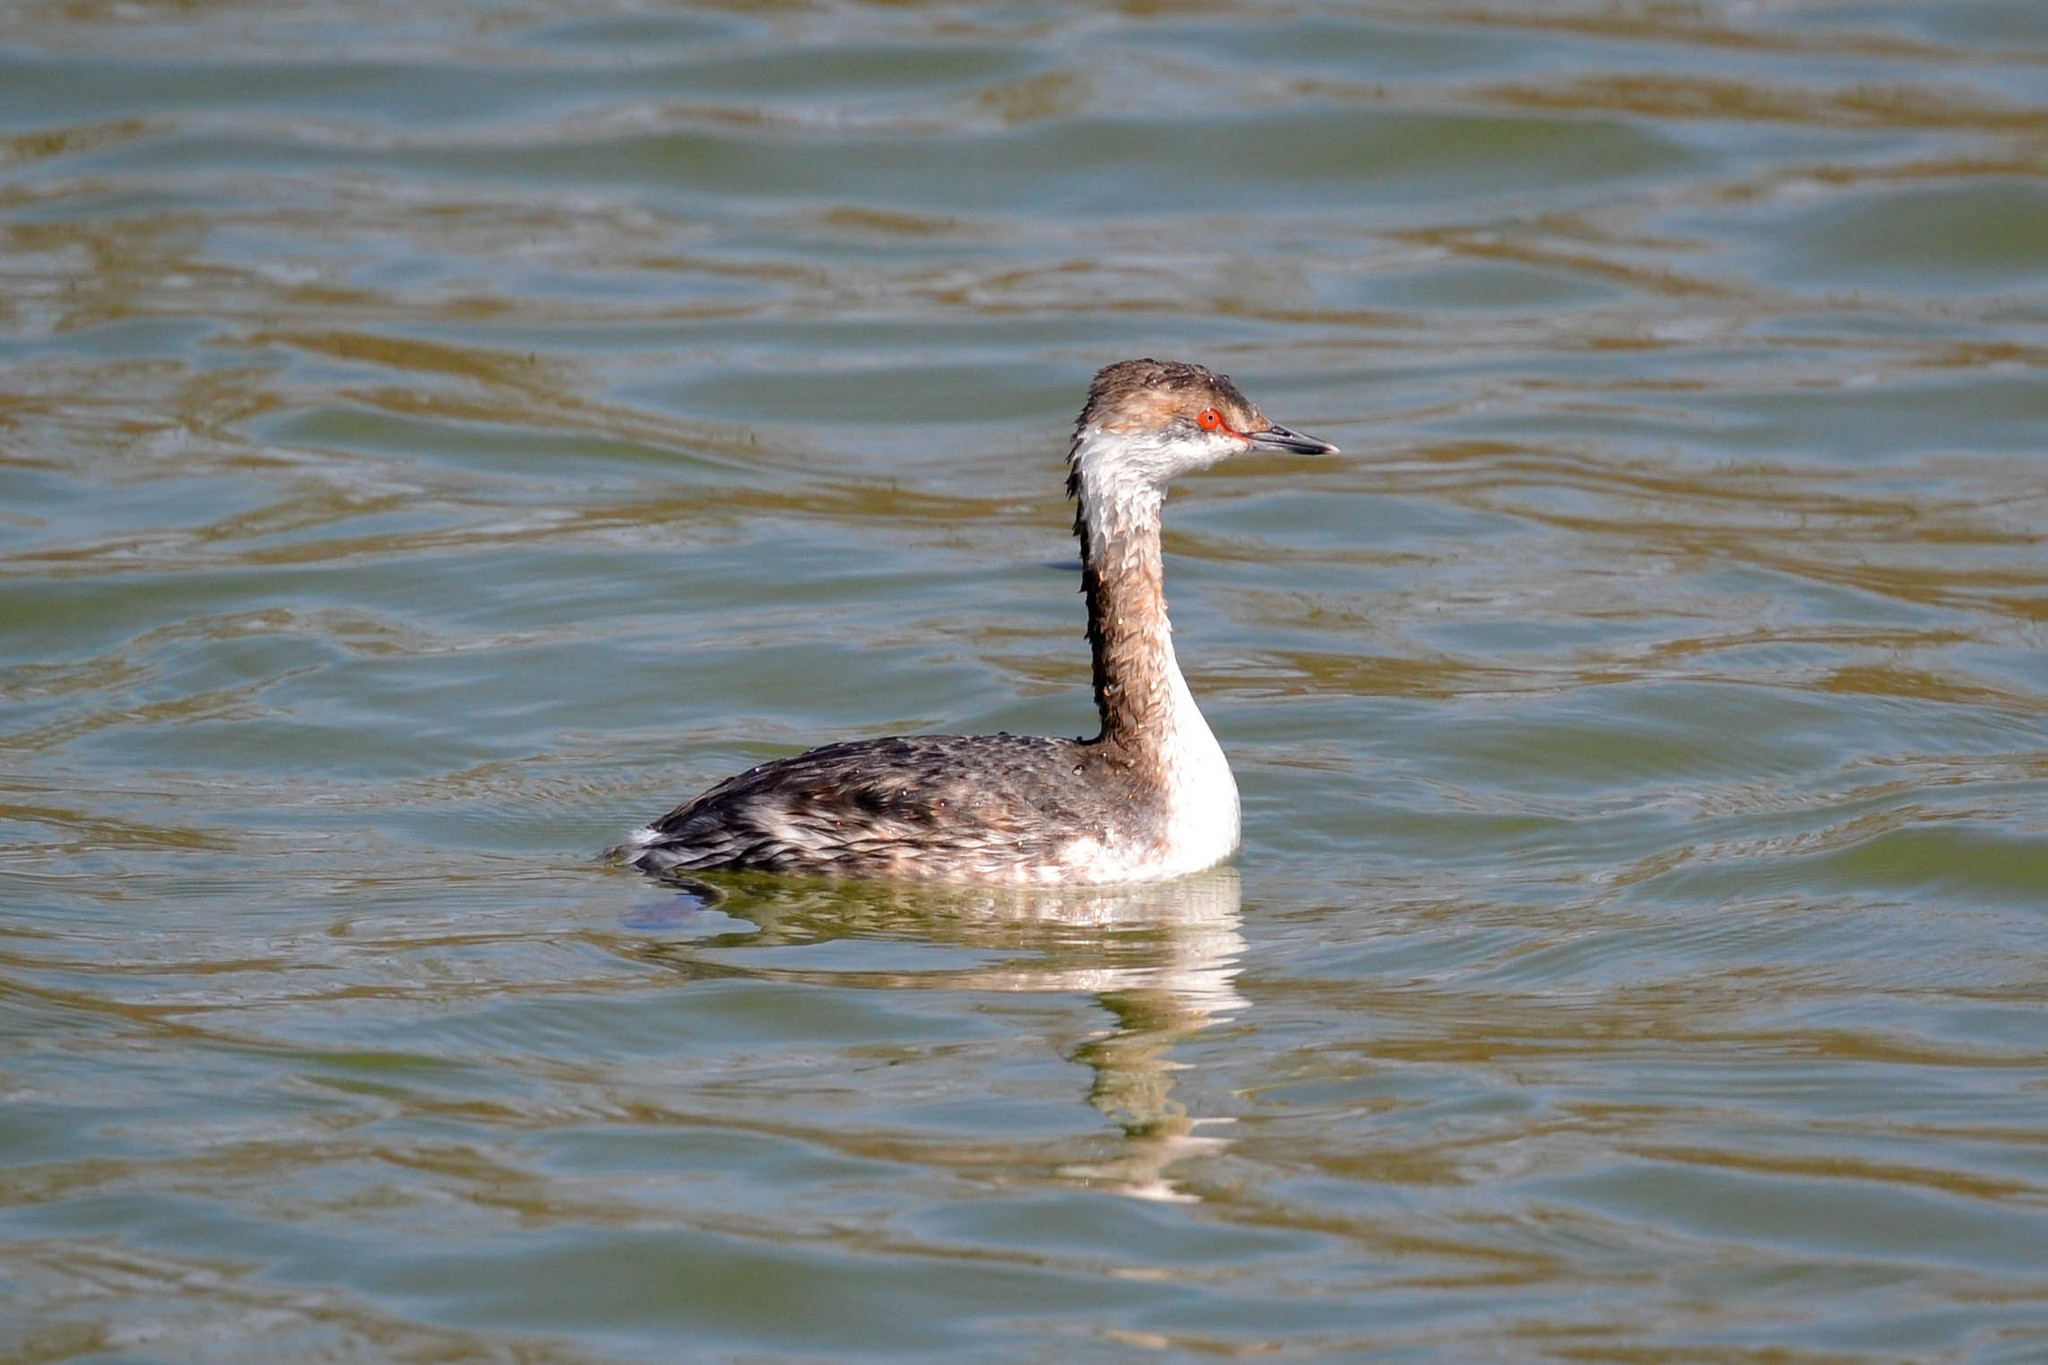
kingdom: Animalia
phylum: Chordata
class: Aves
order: Podicipediformes
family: Podicipedidae
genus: Podiceps
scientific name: Podiceps auritus
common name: Horned grebe
